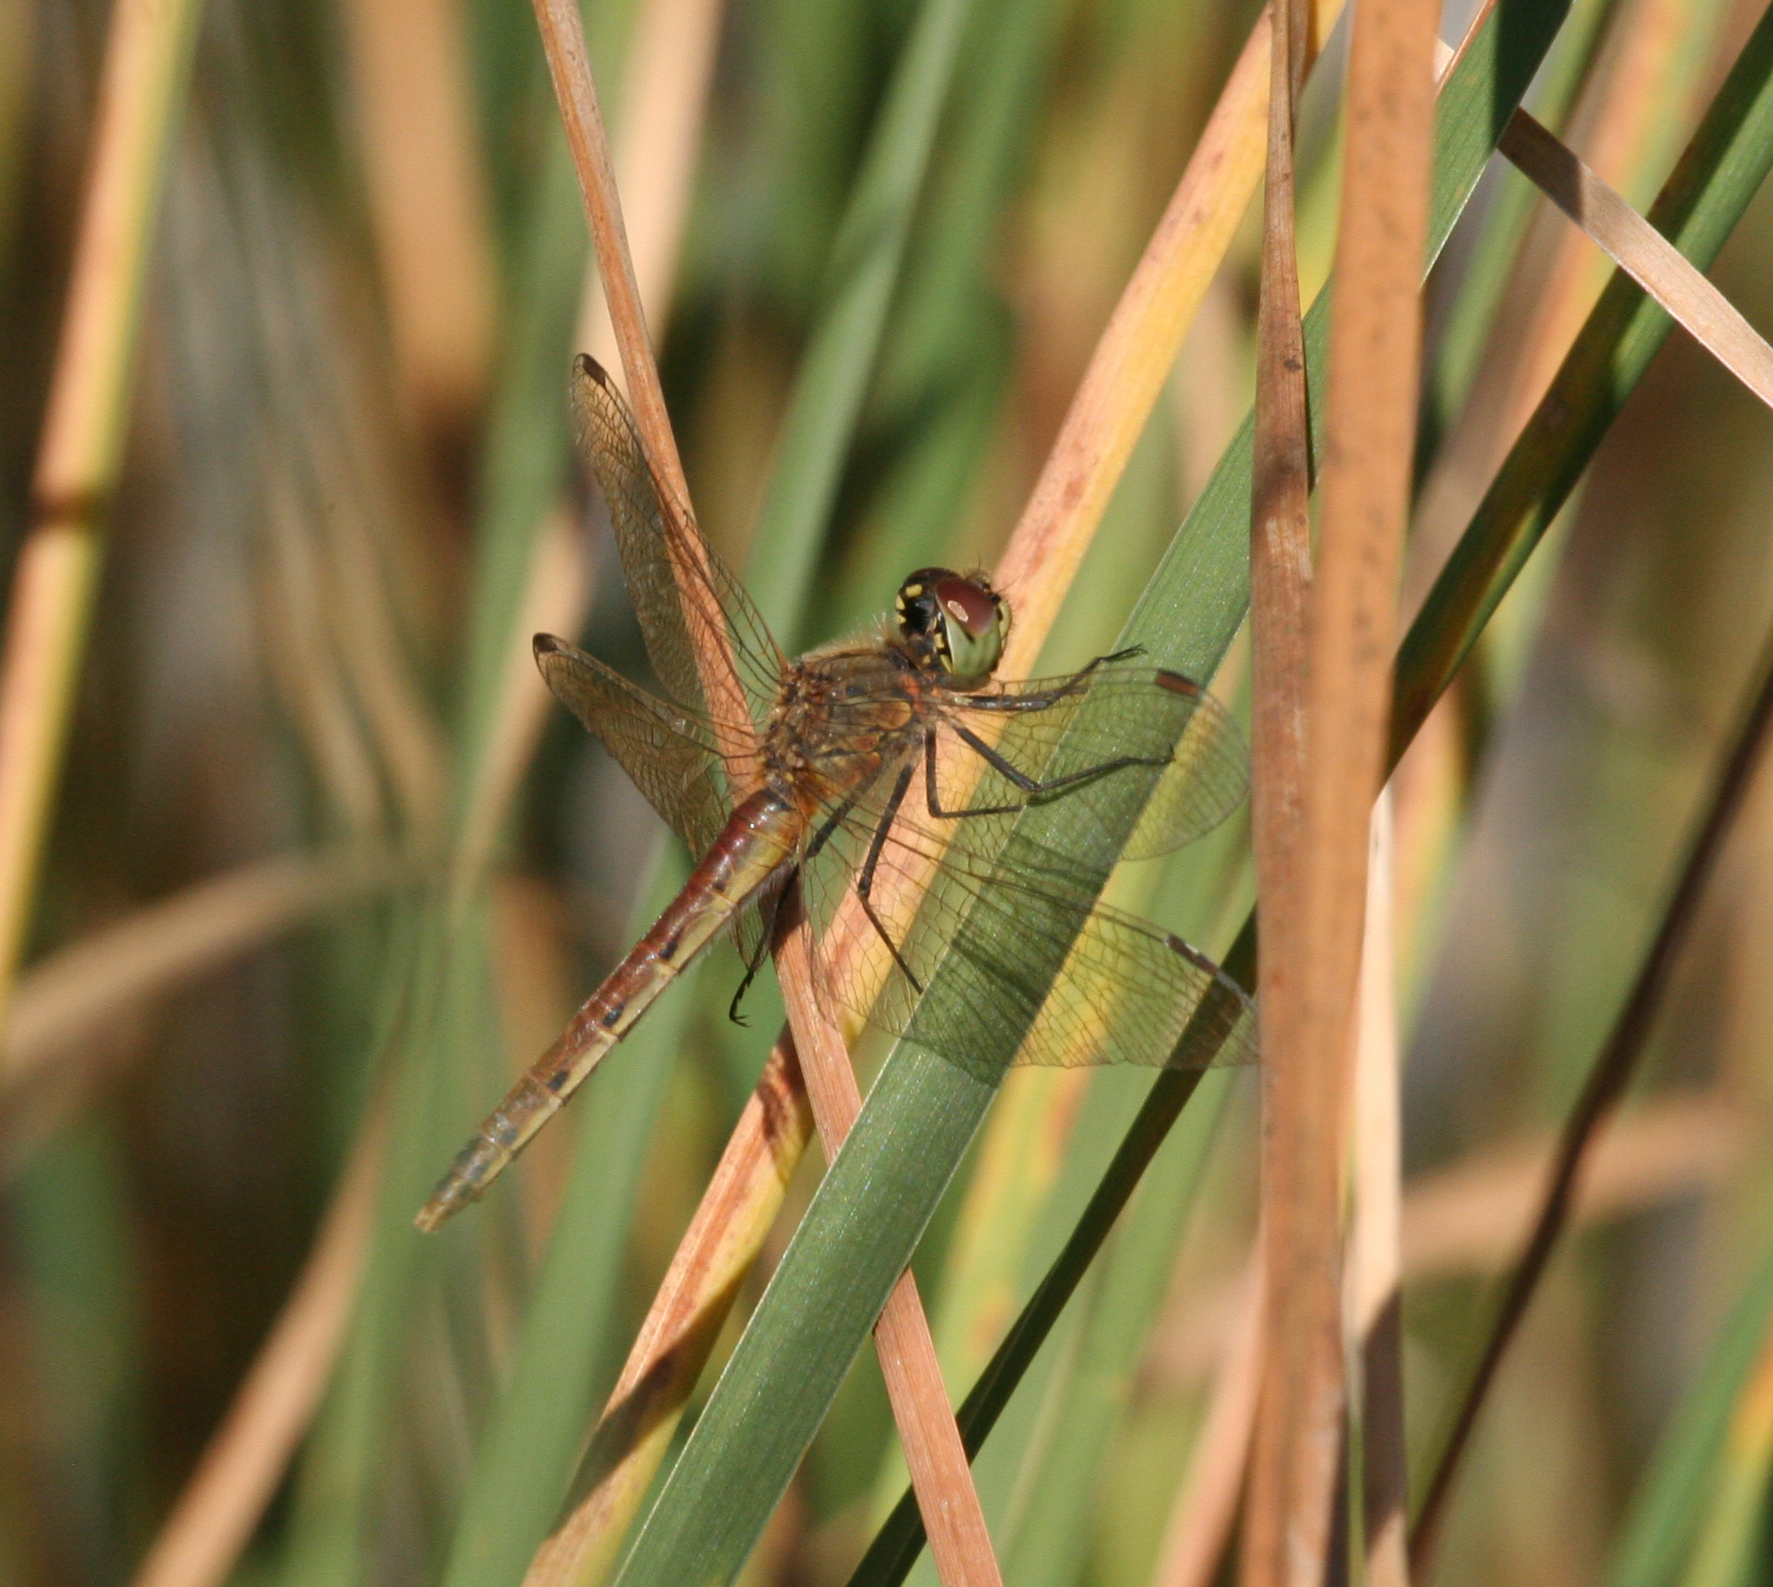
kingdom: Animalia
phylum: Arthropoda
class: Insecta
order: Odonata
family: Libellulidae
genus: Sympetrum
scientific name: Sympetrum depressiusculum
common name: Spotted darter
